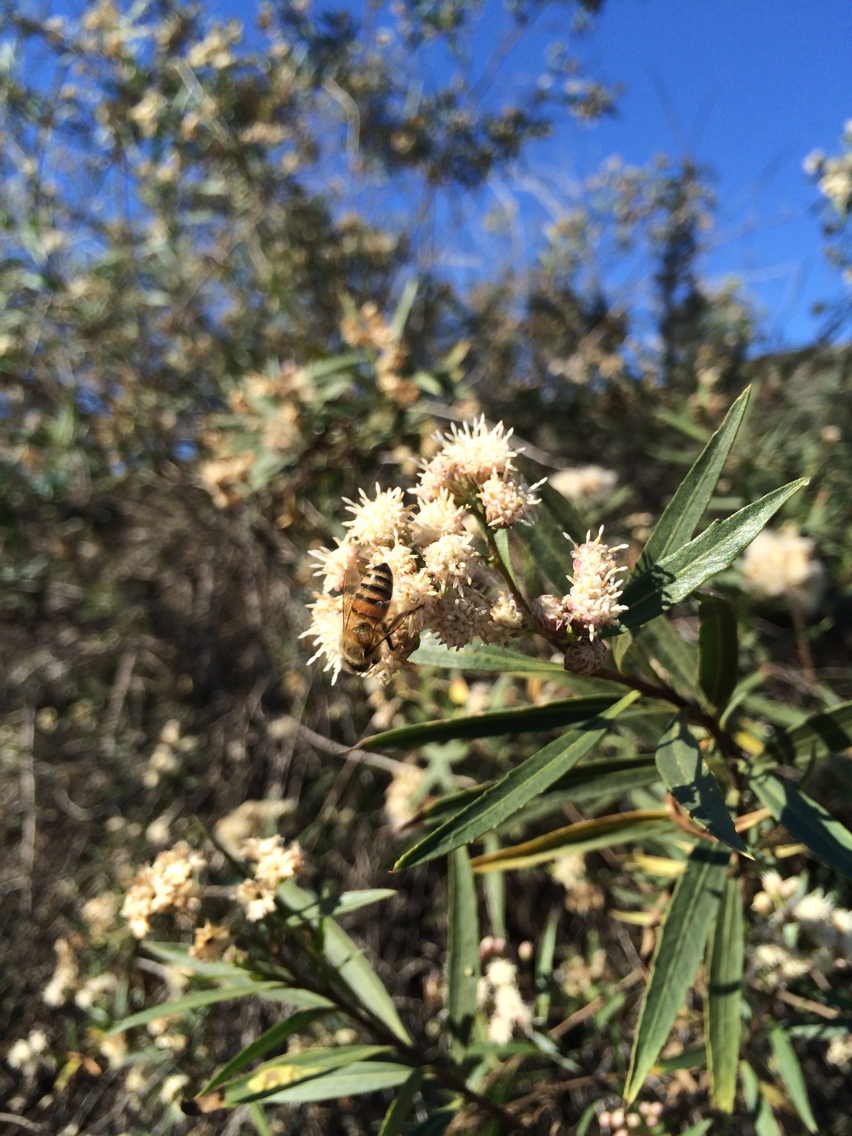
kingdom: Animalia
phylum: Arthropoda
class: Insecta
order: Hymenoptera
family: Apidae
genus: Apis
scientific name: Apis mellifera
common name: Honey bee
